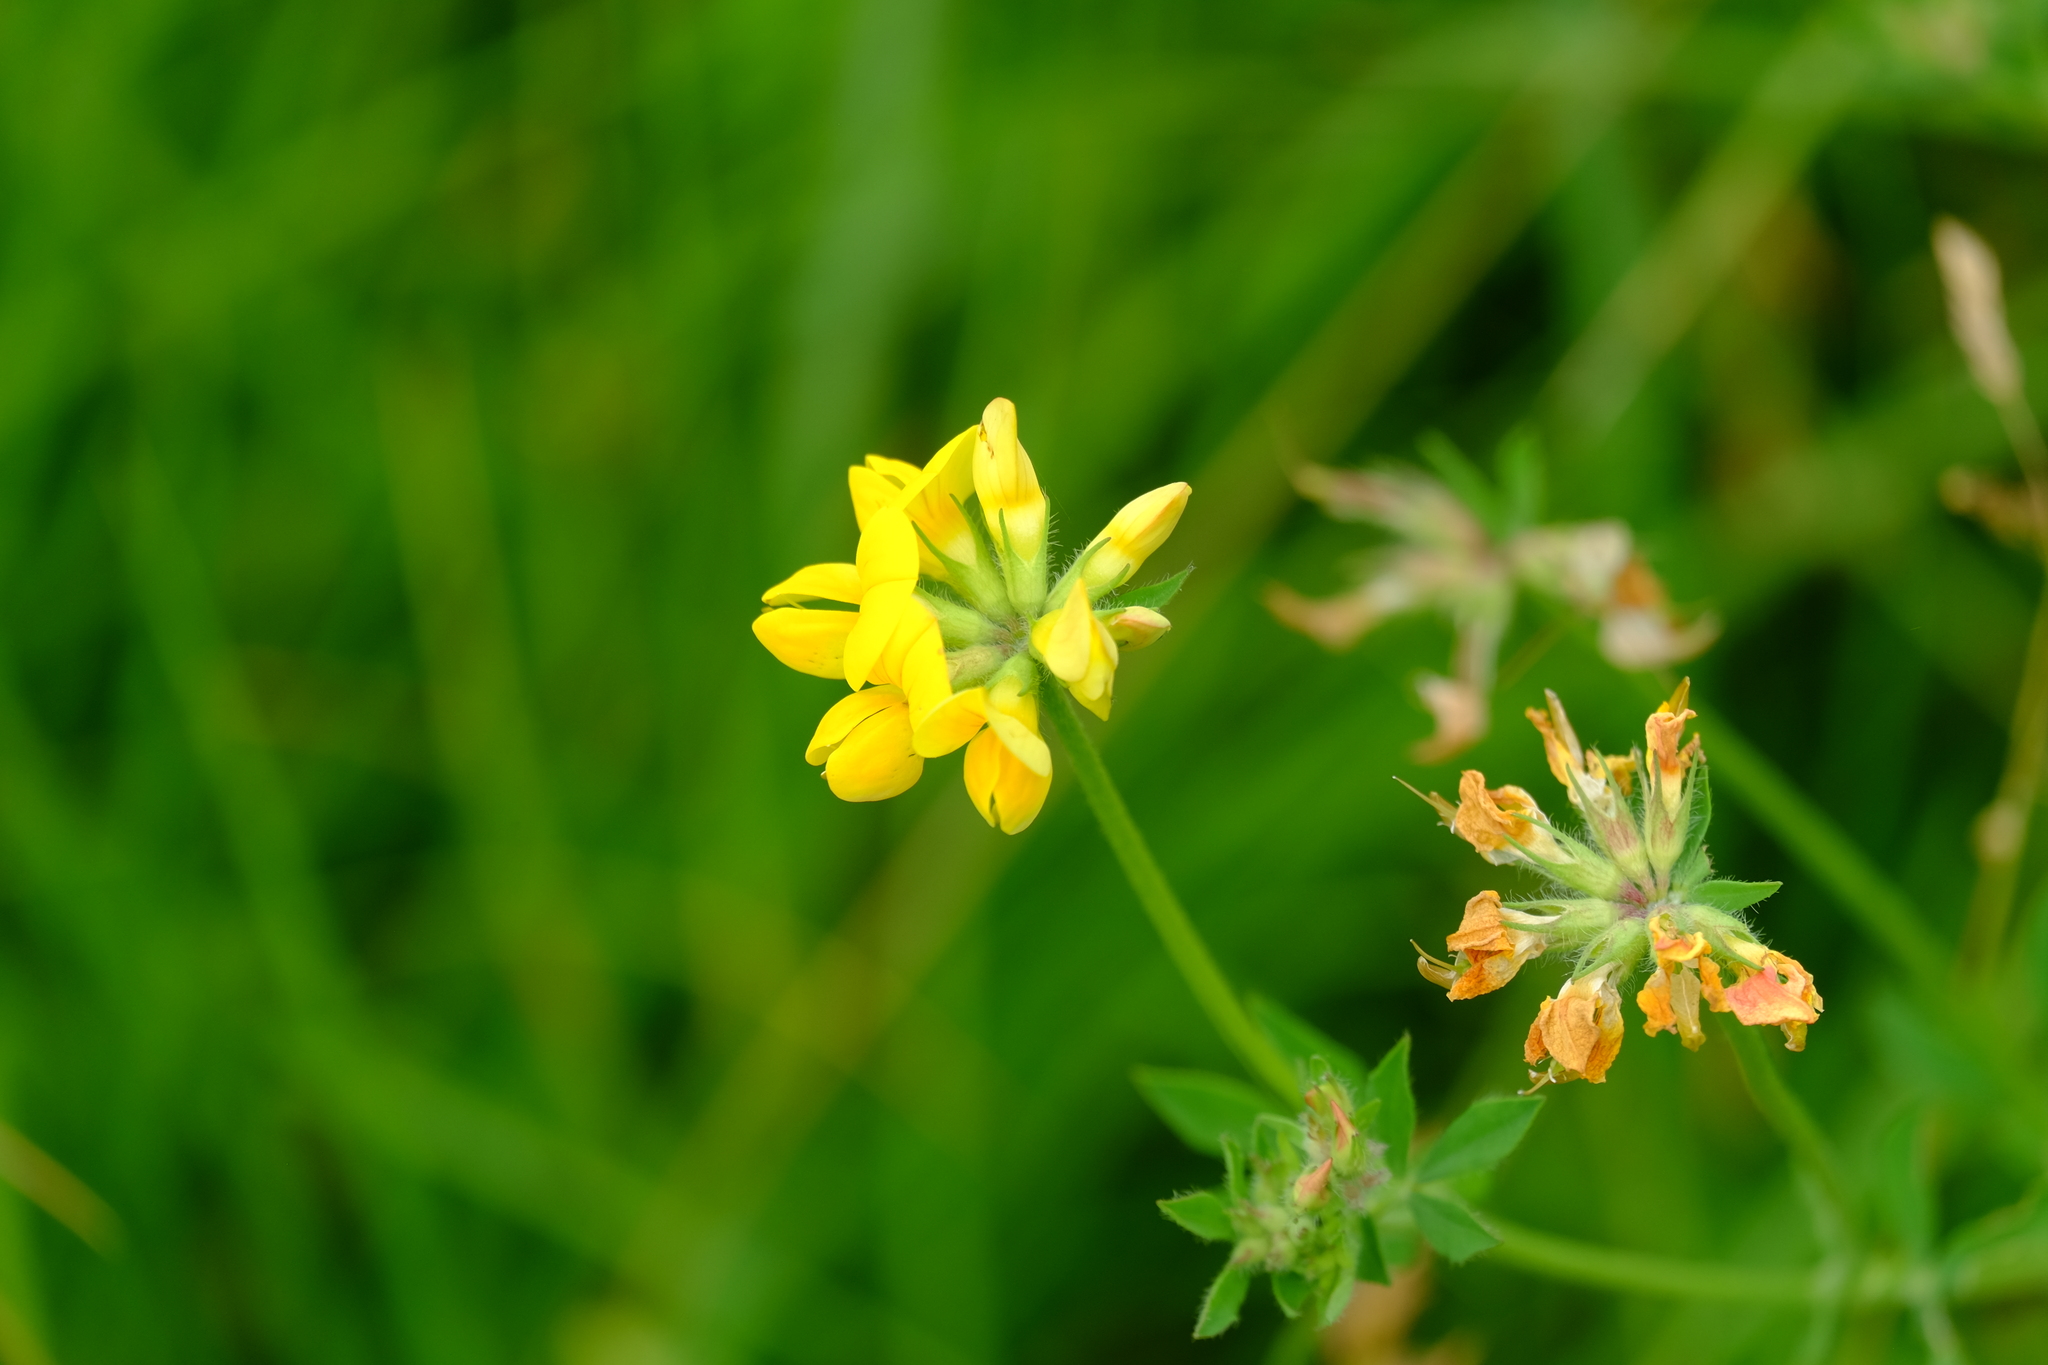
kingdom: Plantae
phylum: Tracheophyta
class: Magnoliopsida
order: Fabales
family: Fabaceae
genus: Lotus
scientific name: Lotus corniculatus
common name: Common bird's-foot-trefoil
